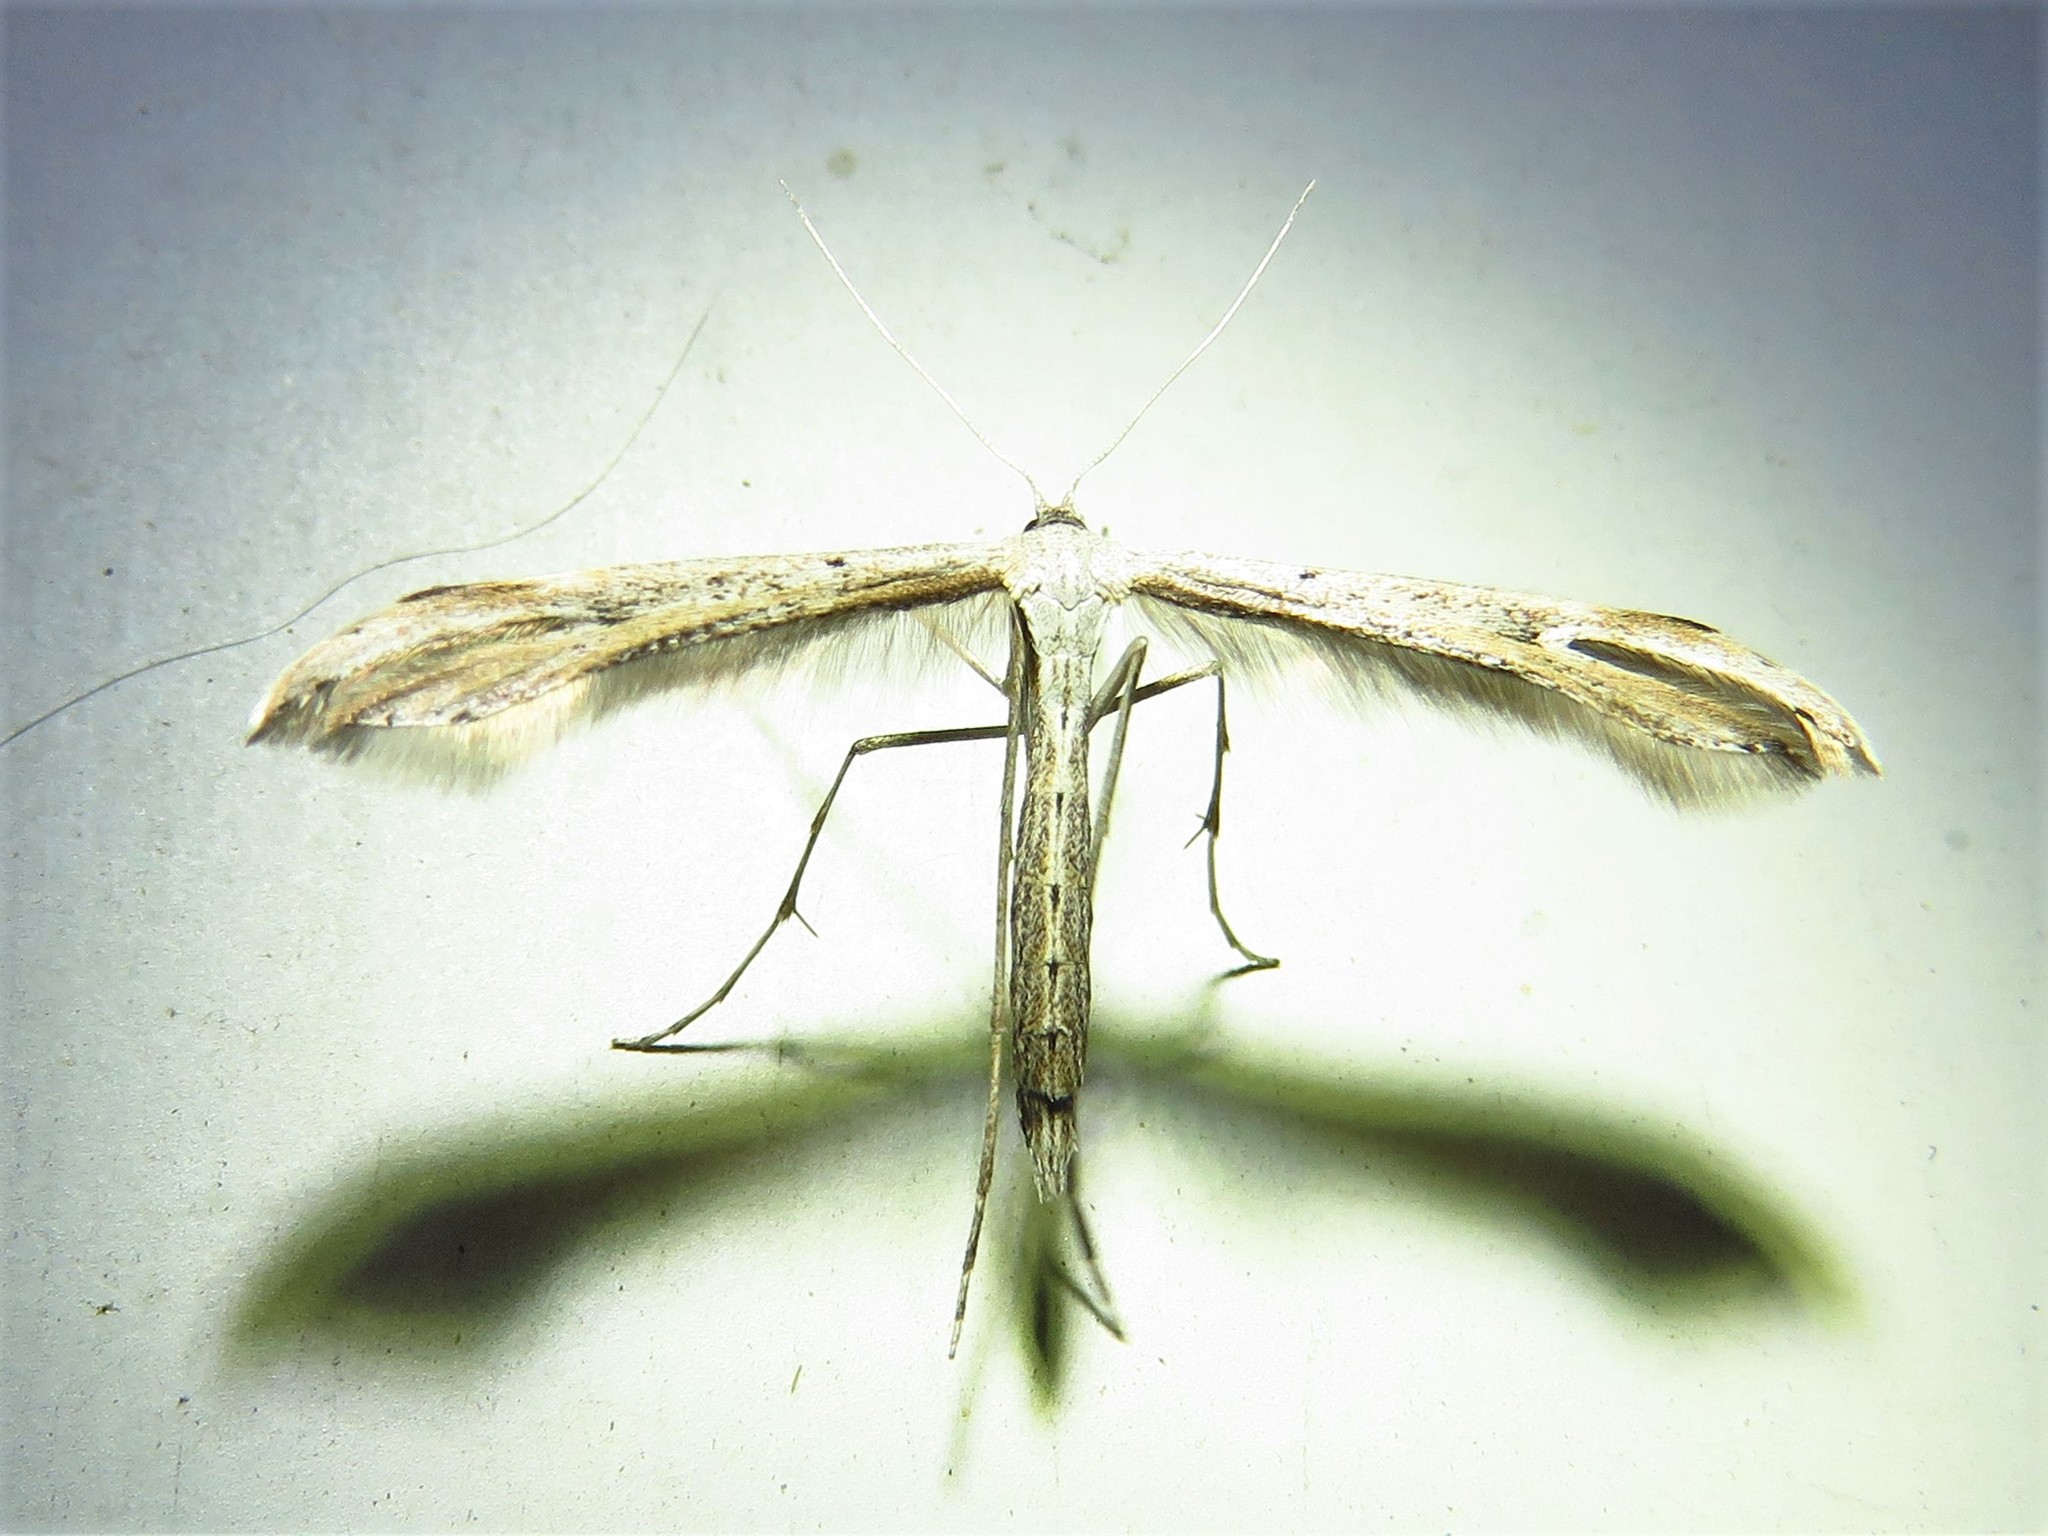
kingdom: Animalia
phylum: Arthropoda
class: Insecta
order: Lepidoptera
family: Pterophoridae
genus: Emmelina
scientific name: Emmelina monodactyla
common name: Common plume
